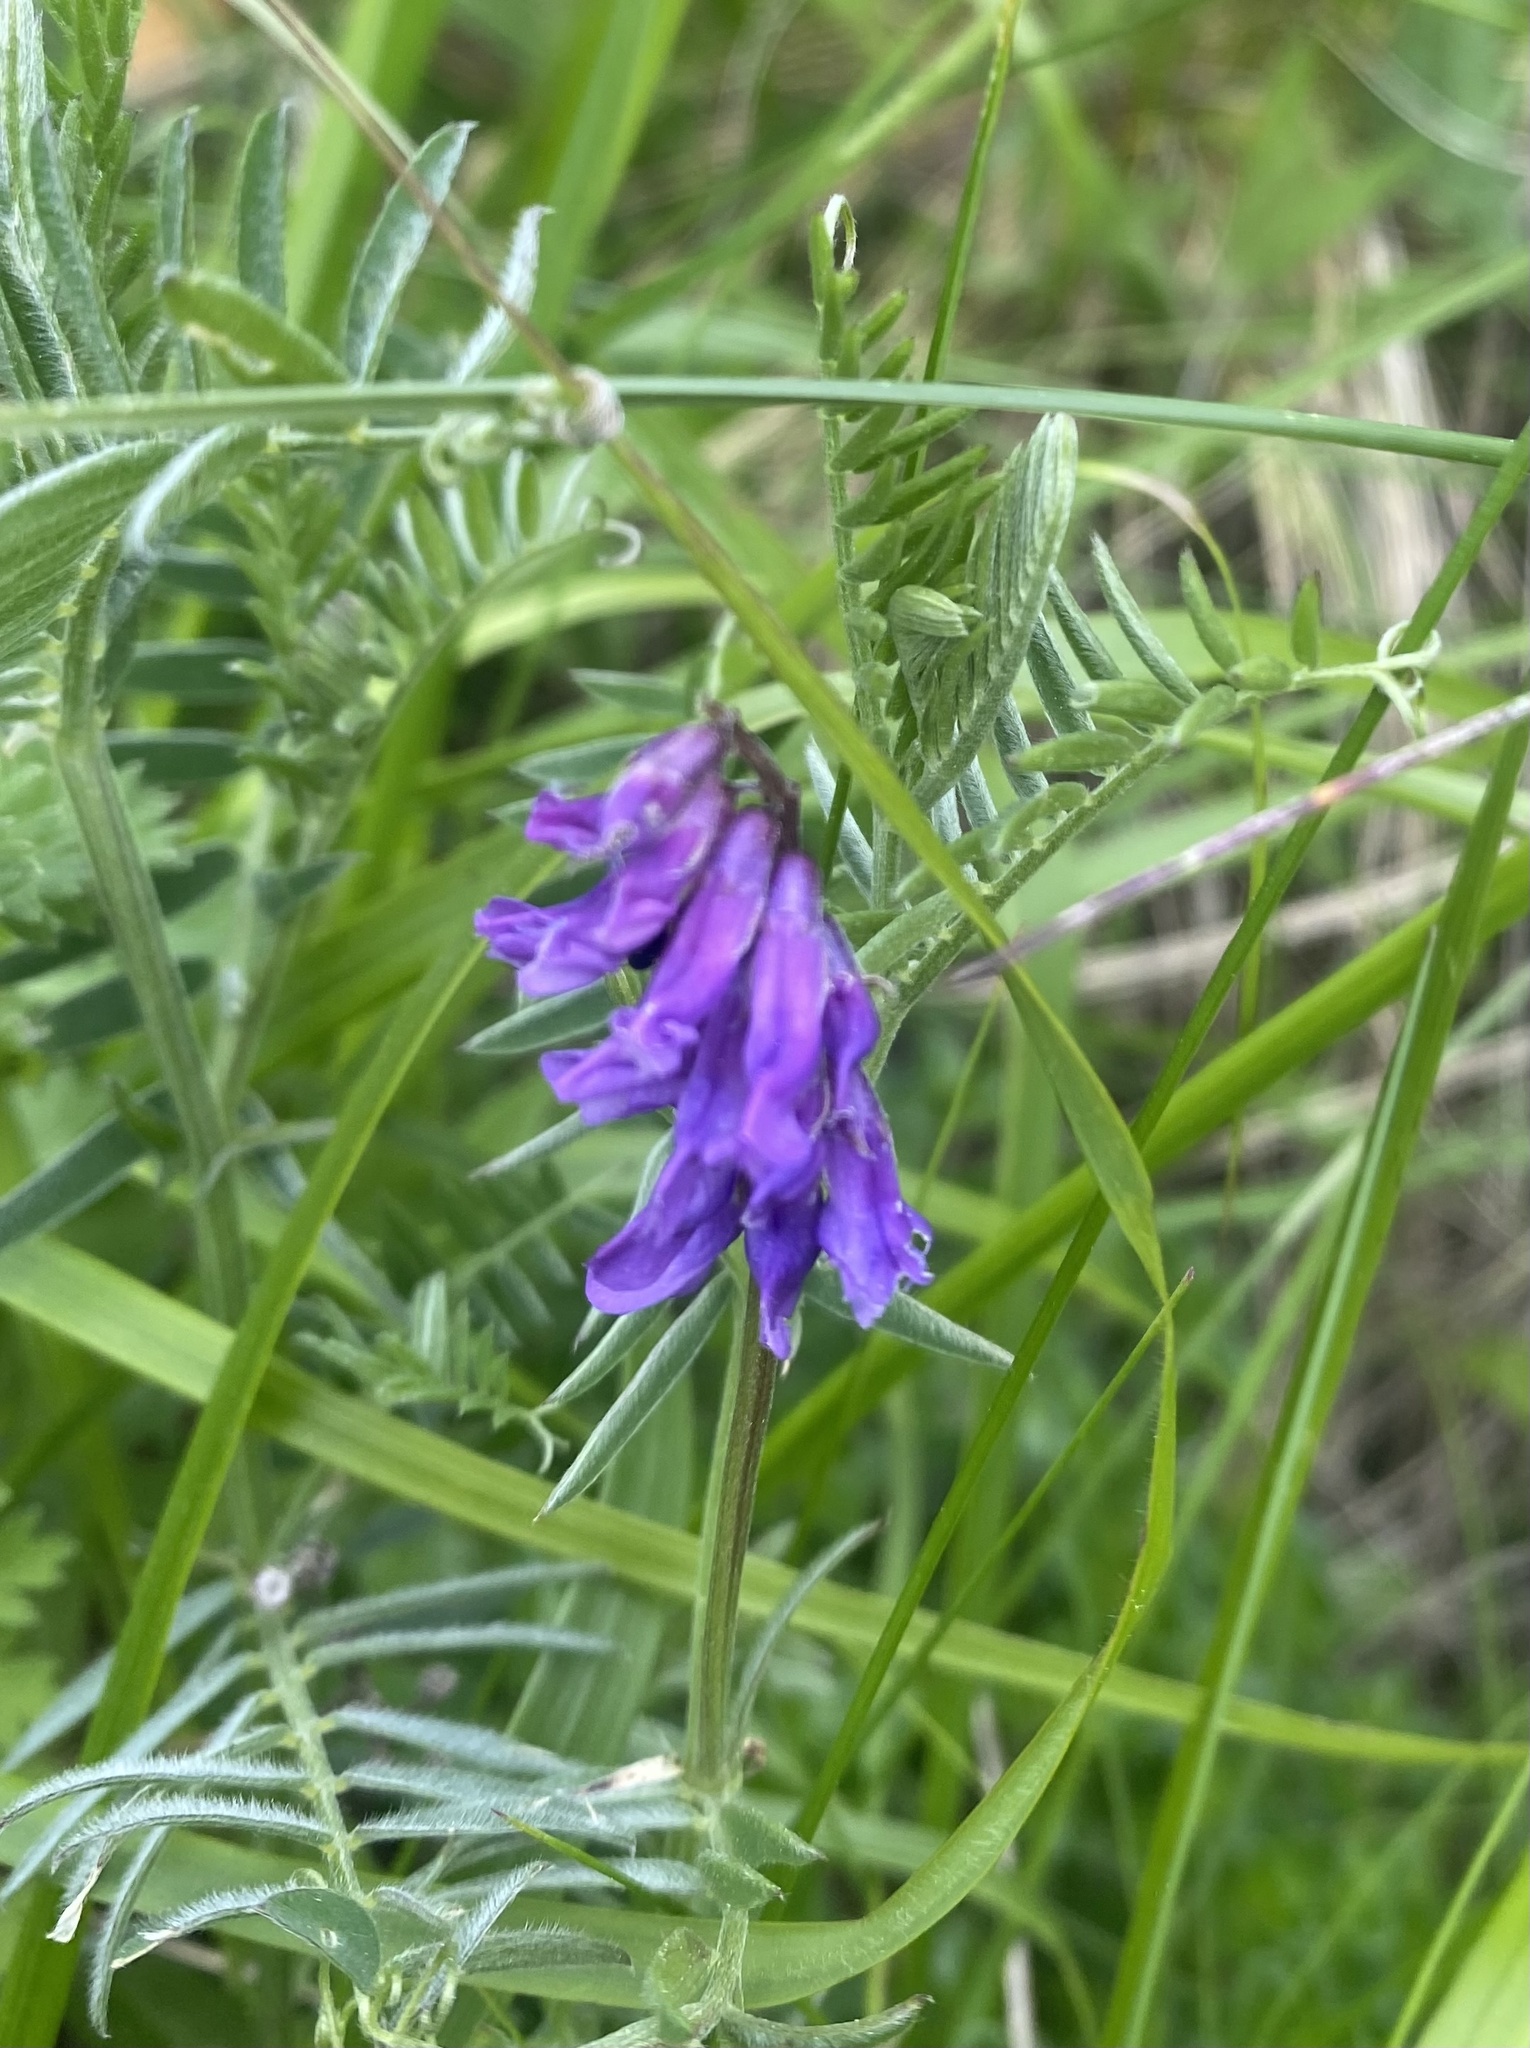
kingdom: Plantae
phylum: Tracheophyta
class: Magnoliopsida
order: Fabales
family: Fabaceae
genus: Vicia
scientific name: Vicia cracca
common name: Bird vetch
